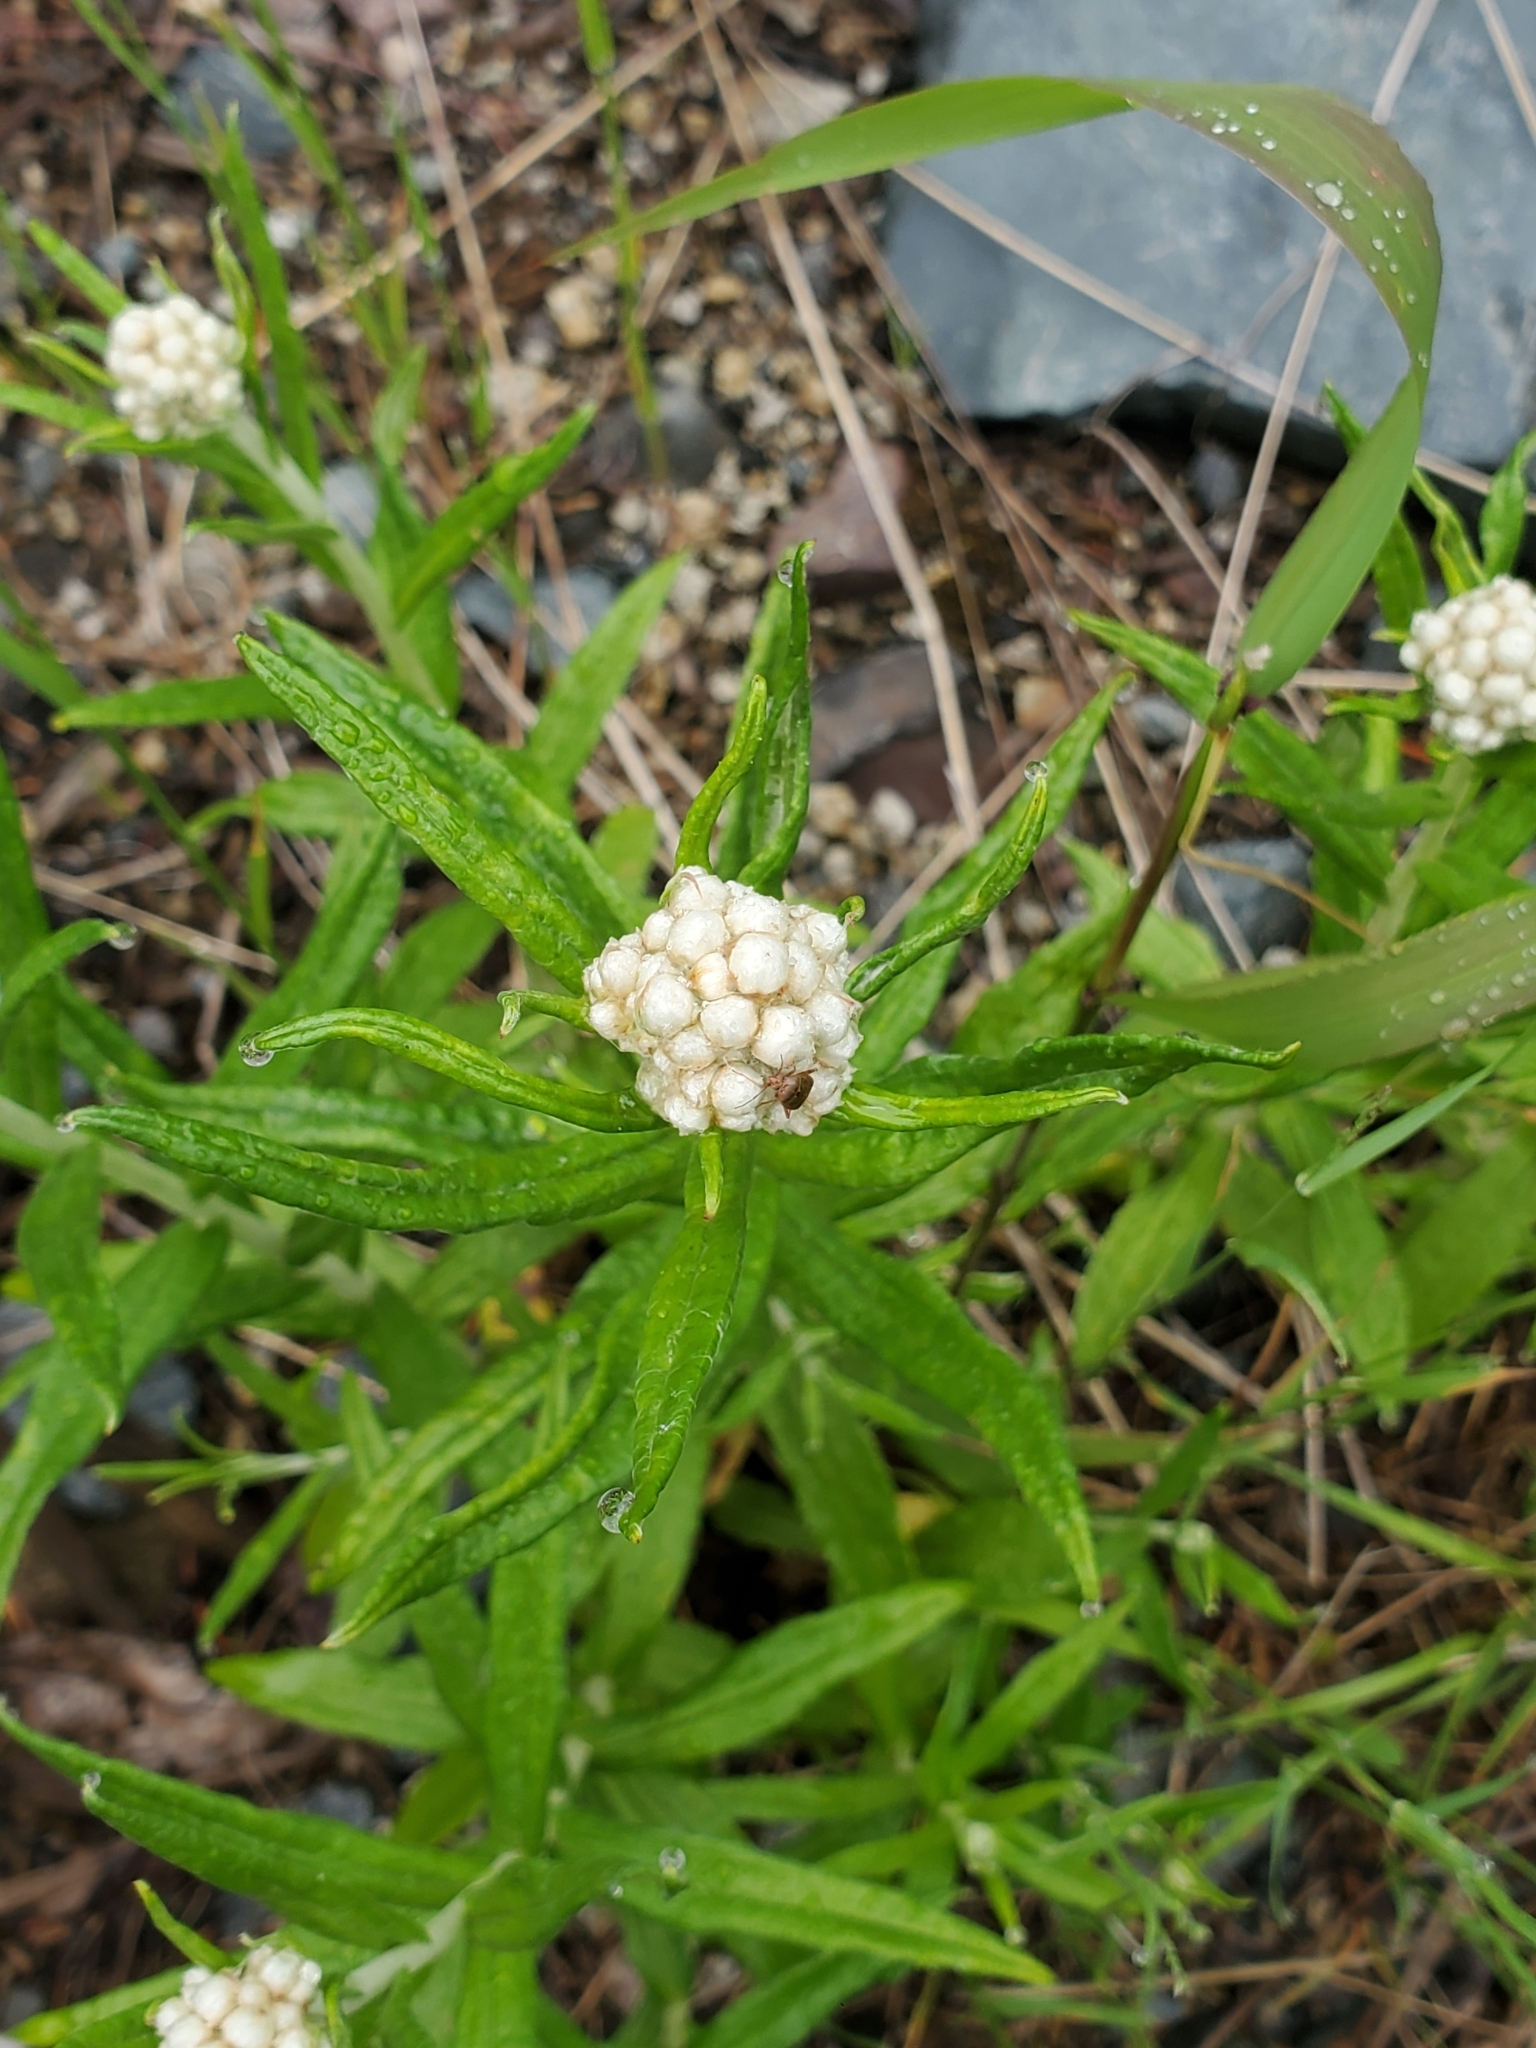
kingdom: Plantae
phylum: Tracheophyta
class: Magnoliopsida
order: Asterales
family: Asteraceae
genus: Anaphalis
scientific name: Anaphalis margaritacea
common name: Pearly everlasting
